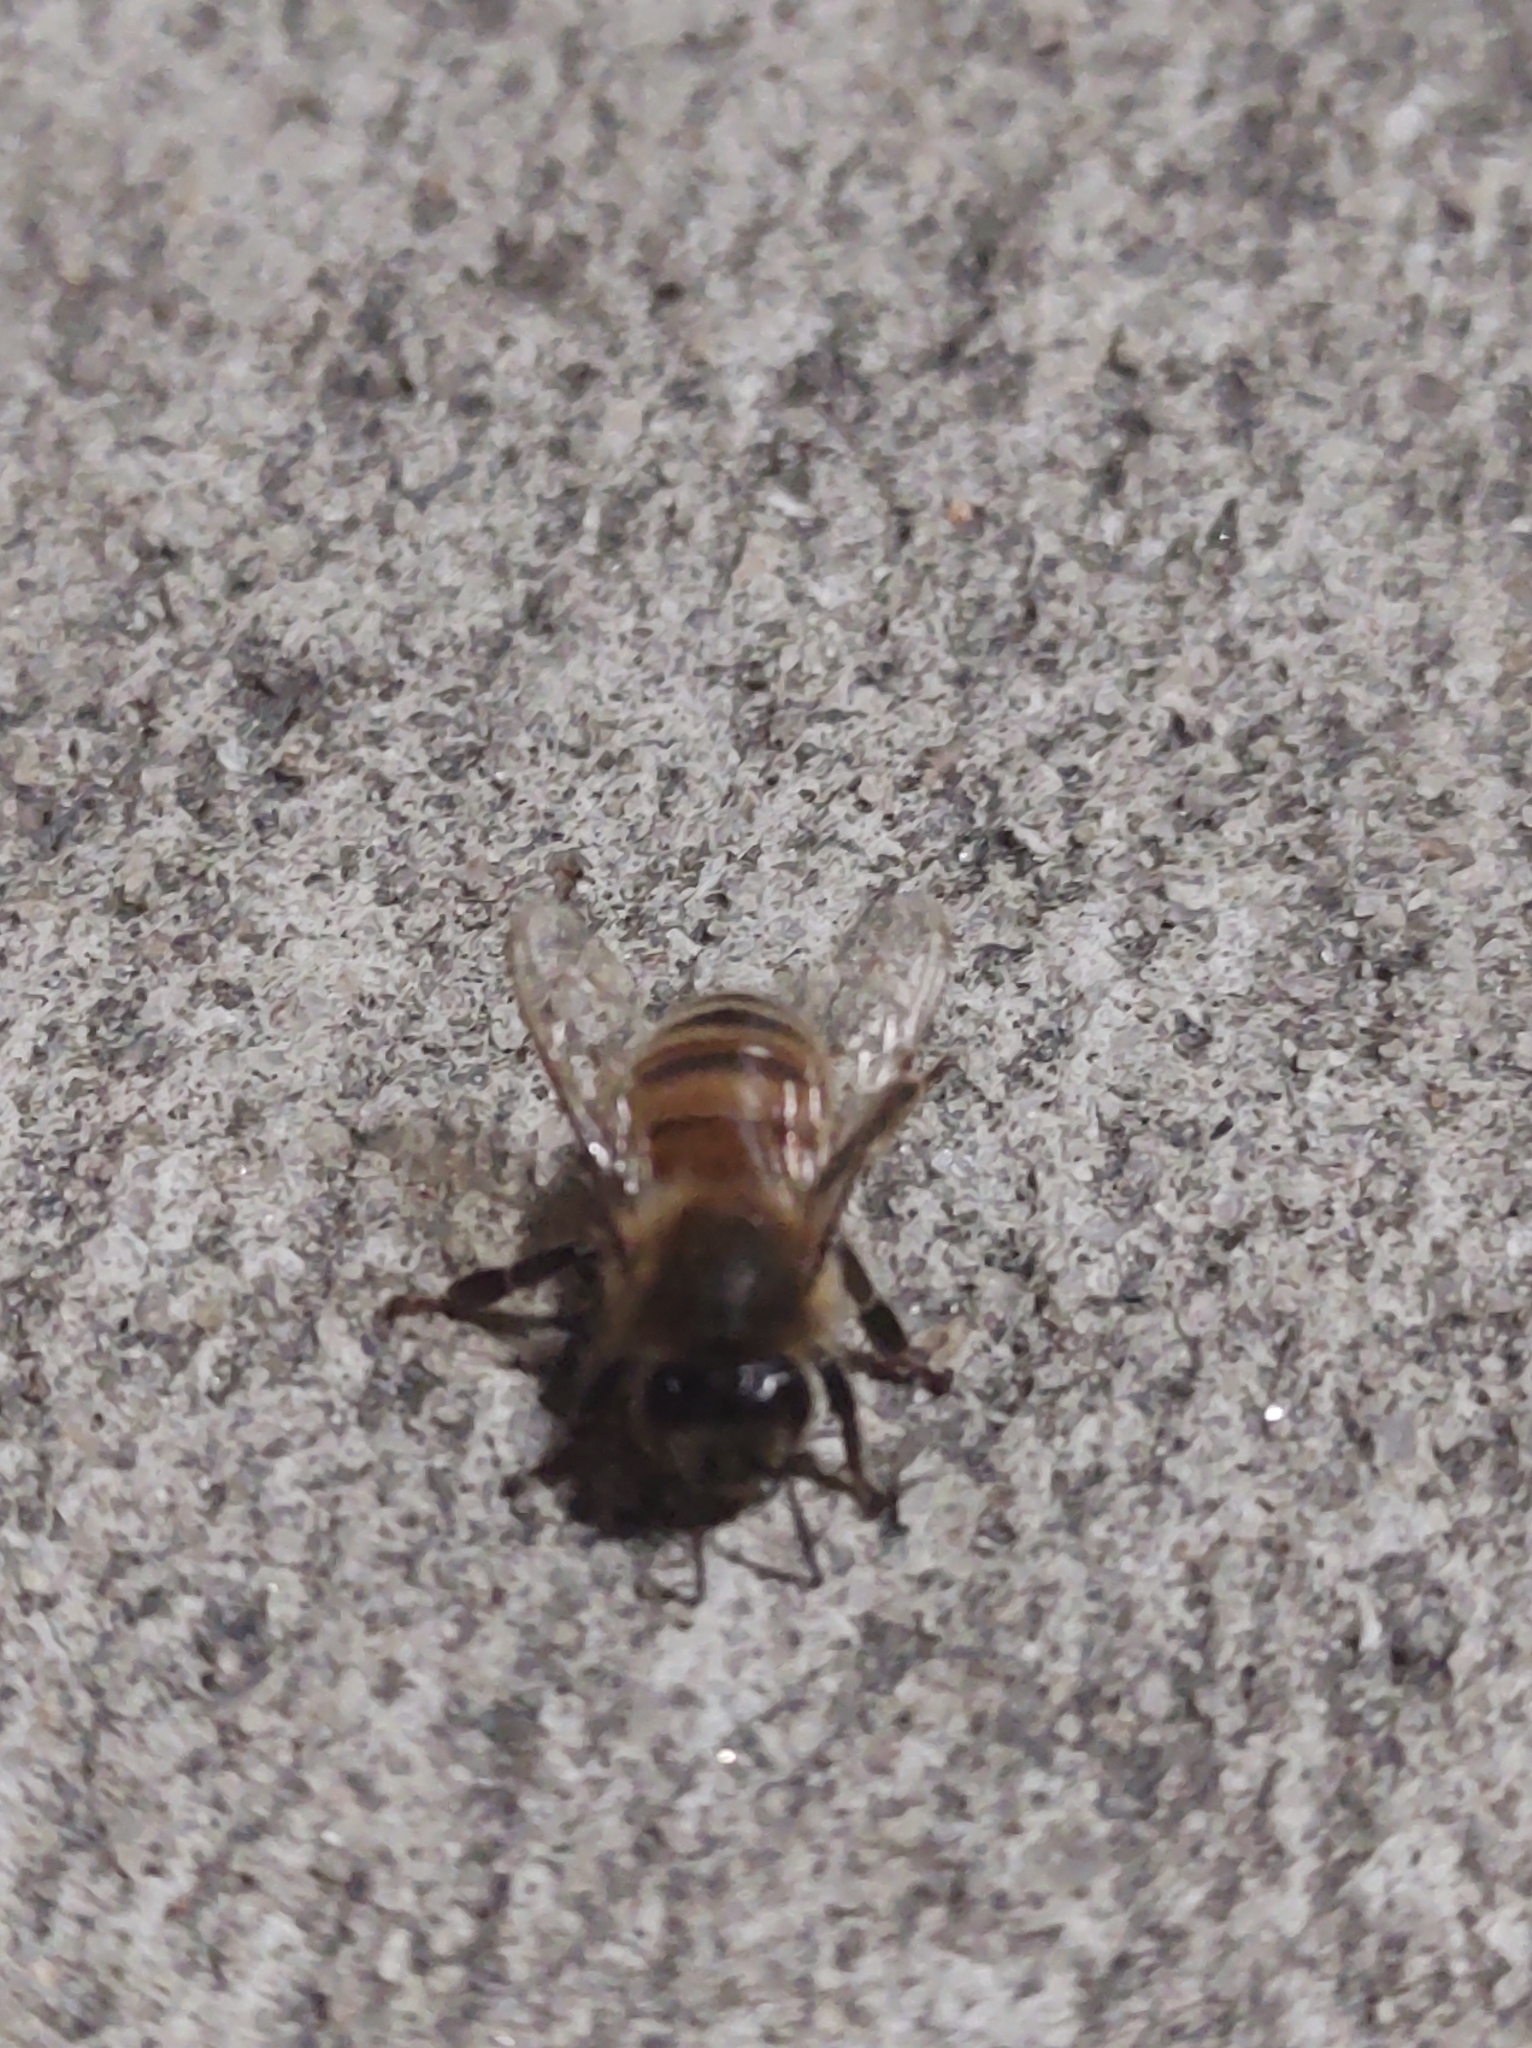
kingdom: Animalia
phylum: Arthropoda
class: Insecta
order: Hymenoptera
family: Apidae
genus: Apis
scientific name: Apis mellifera
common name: Honey bee
